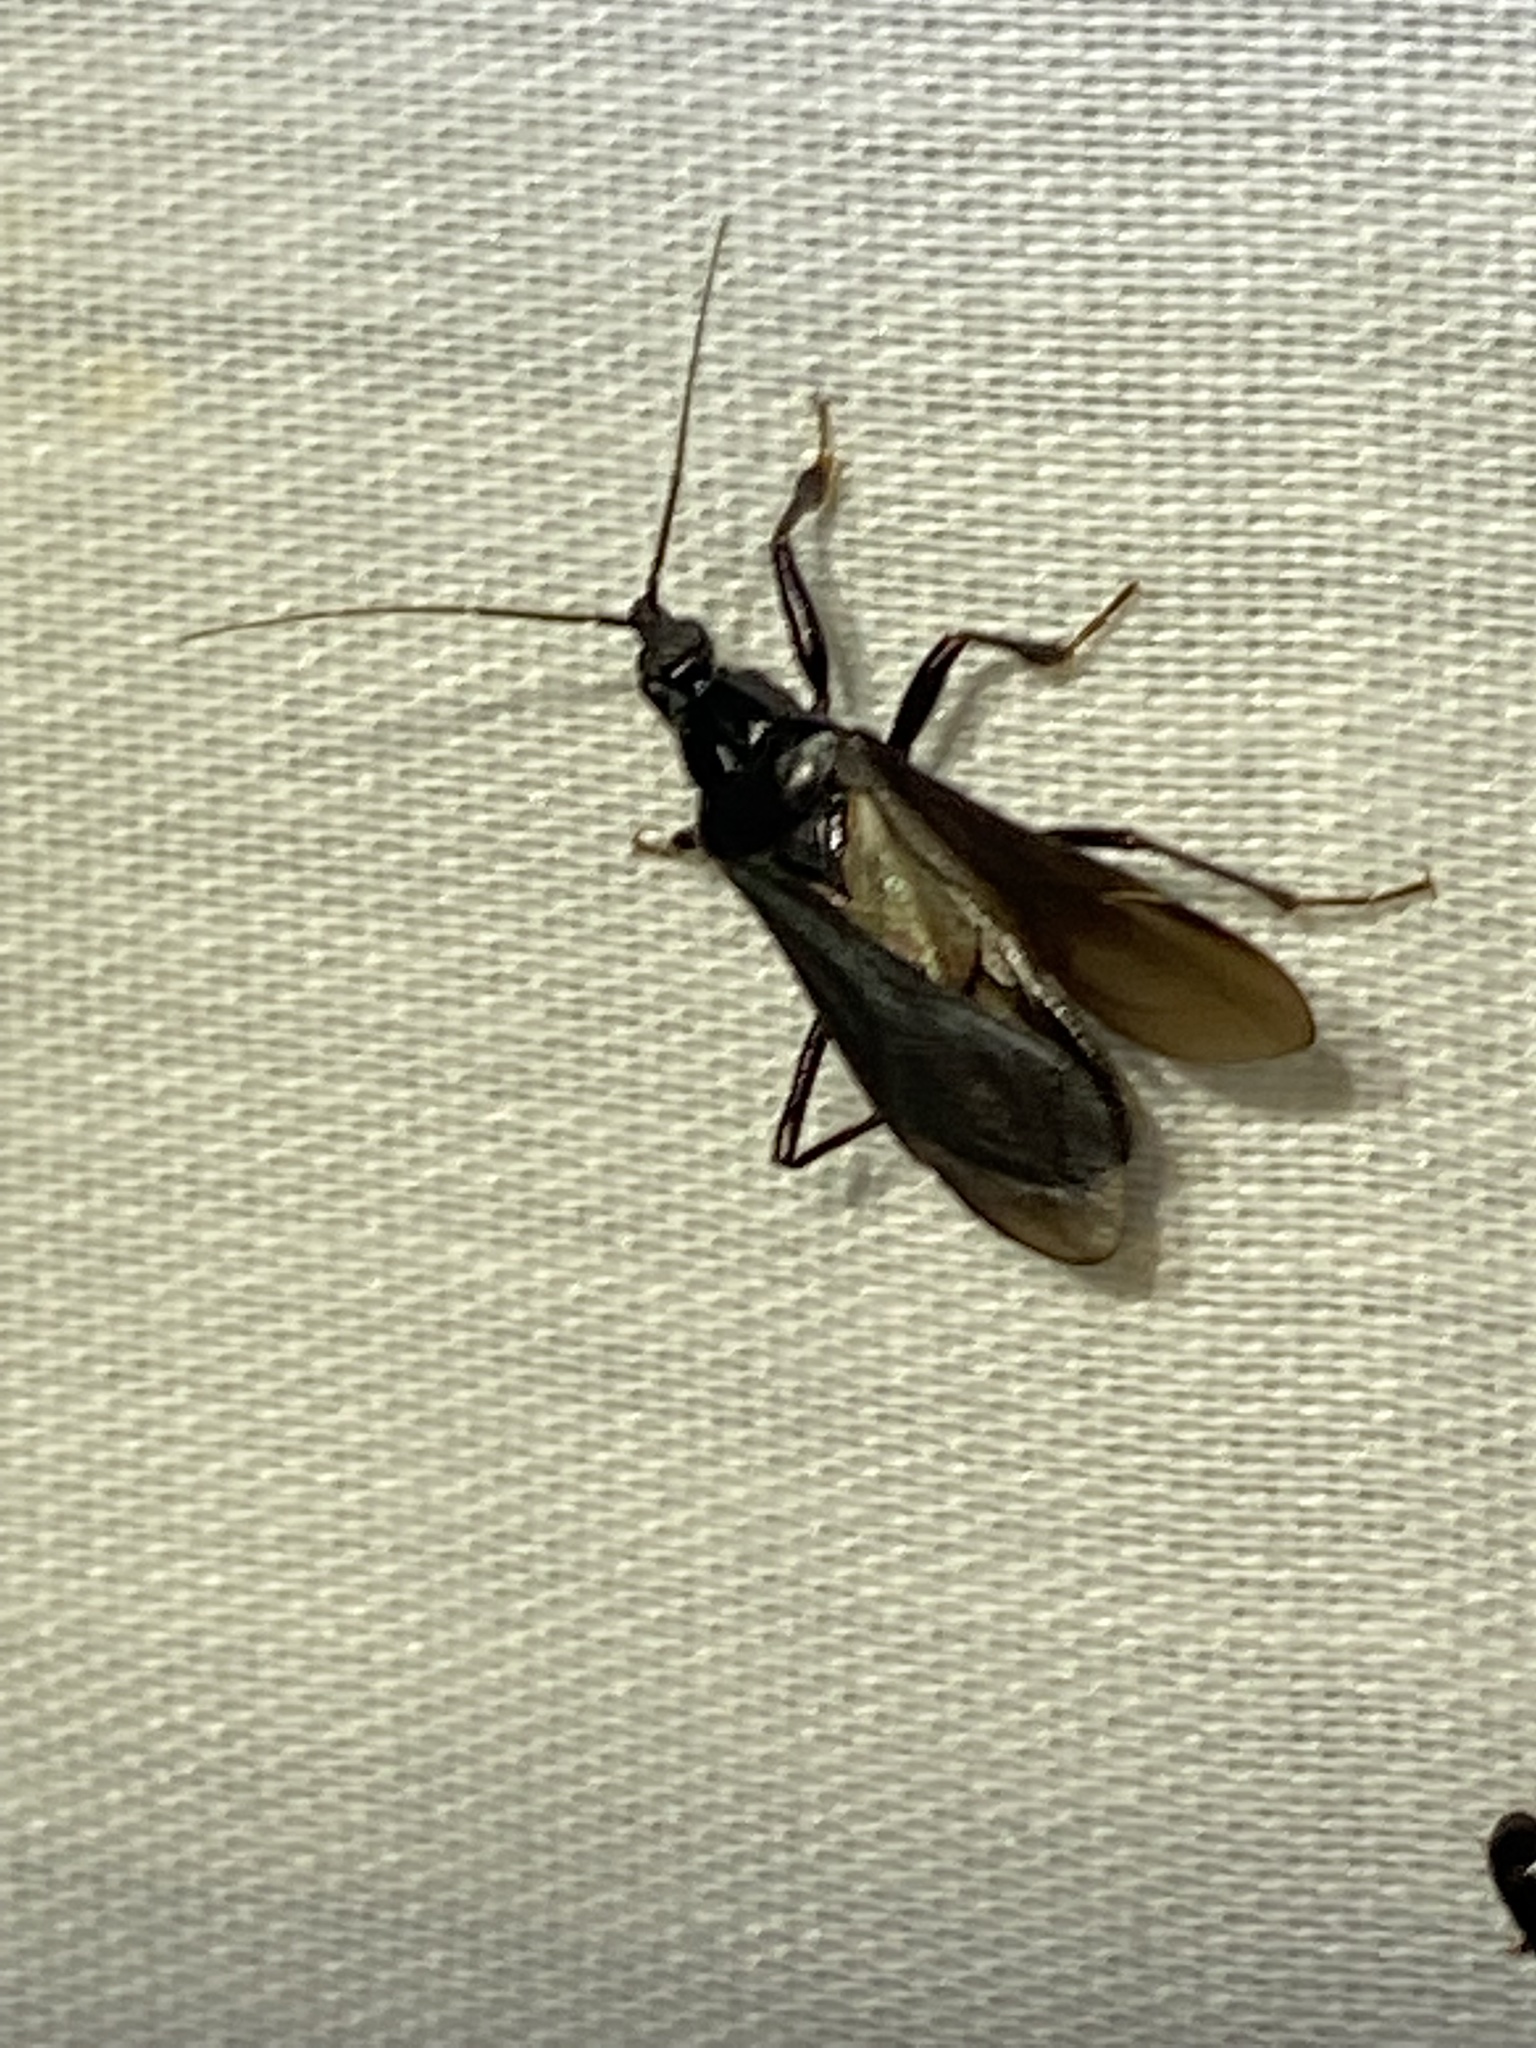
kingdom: Animalia
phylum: Arthropoda
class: Insecta
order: Hemiptera
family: Reduviidae
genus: Melanolestes
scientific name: Melanolestes picipes
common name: Assassin bug
